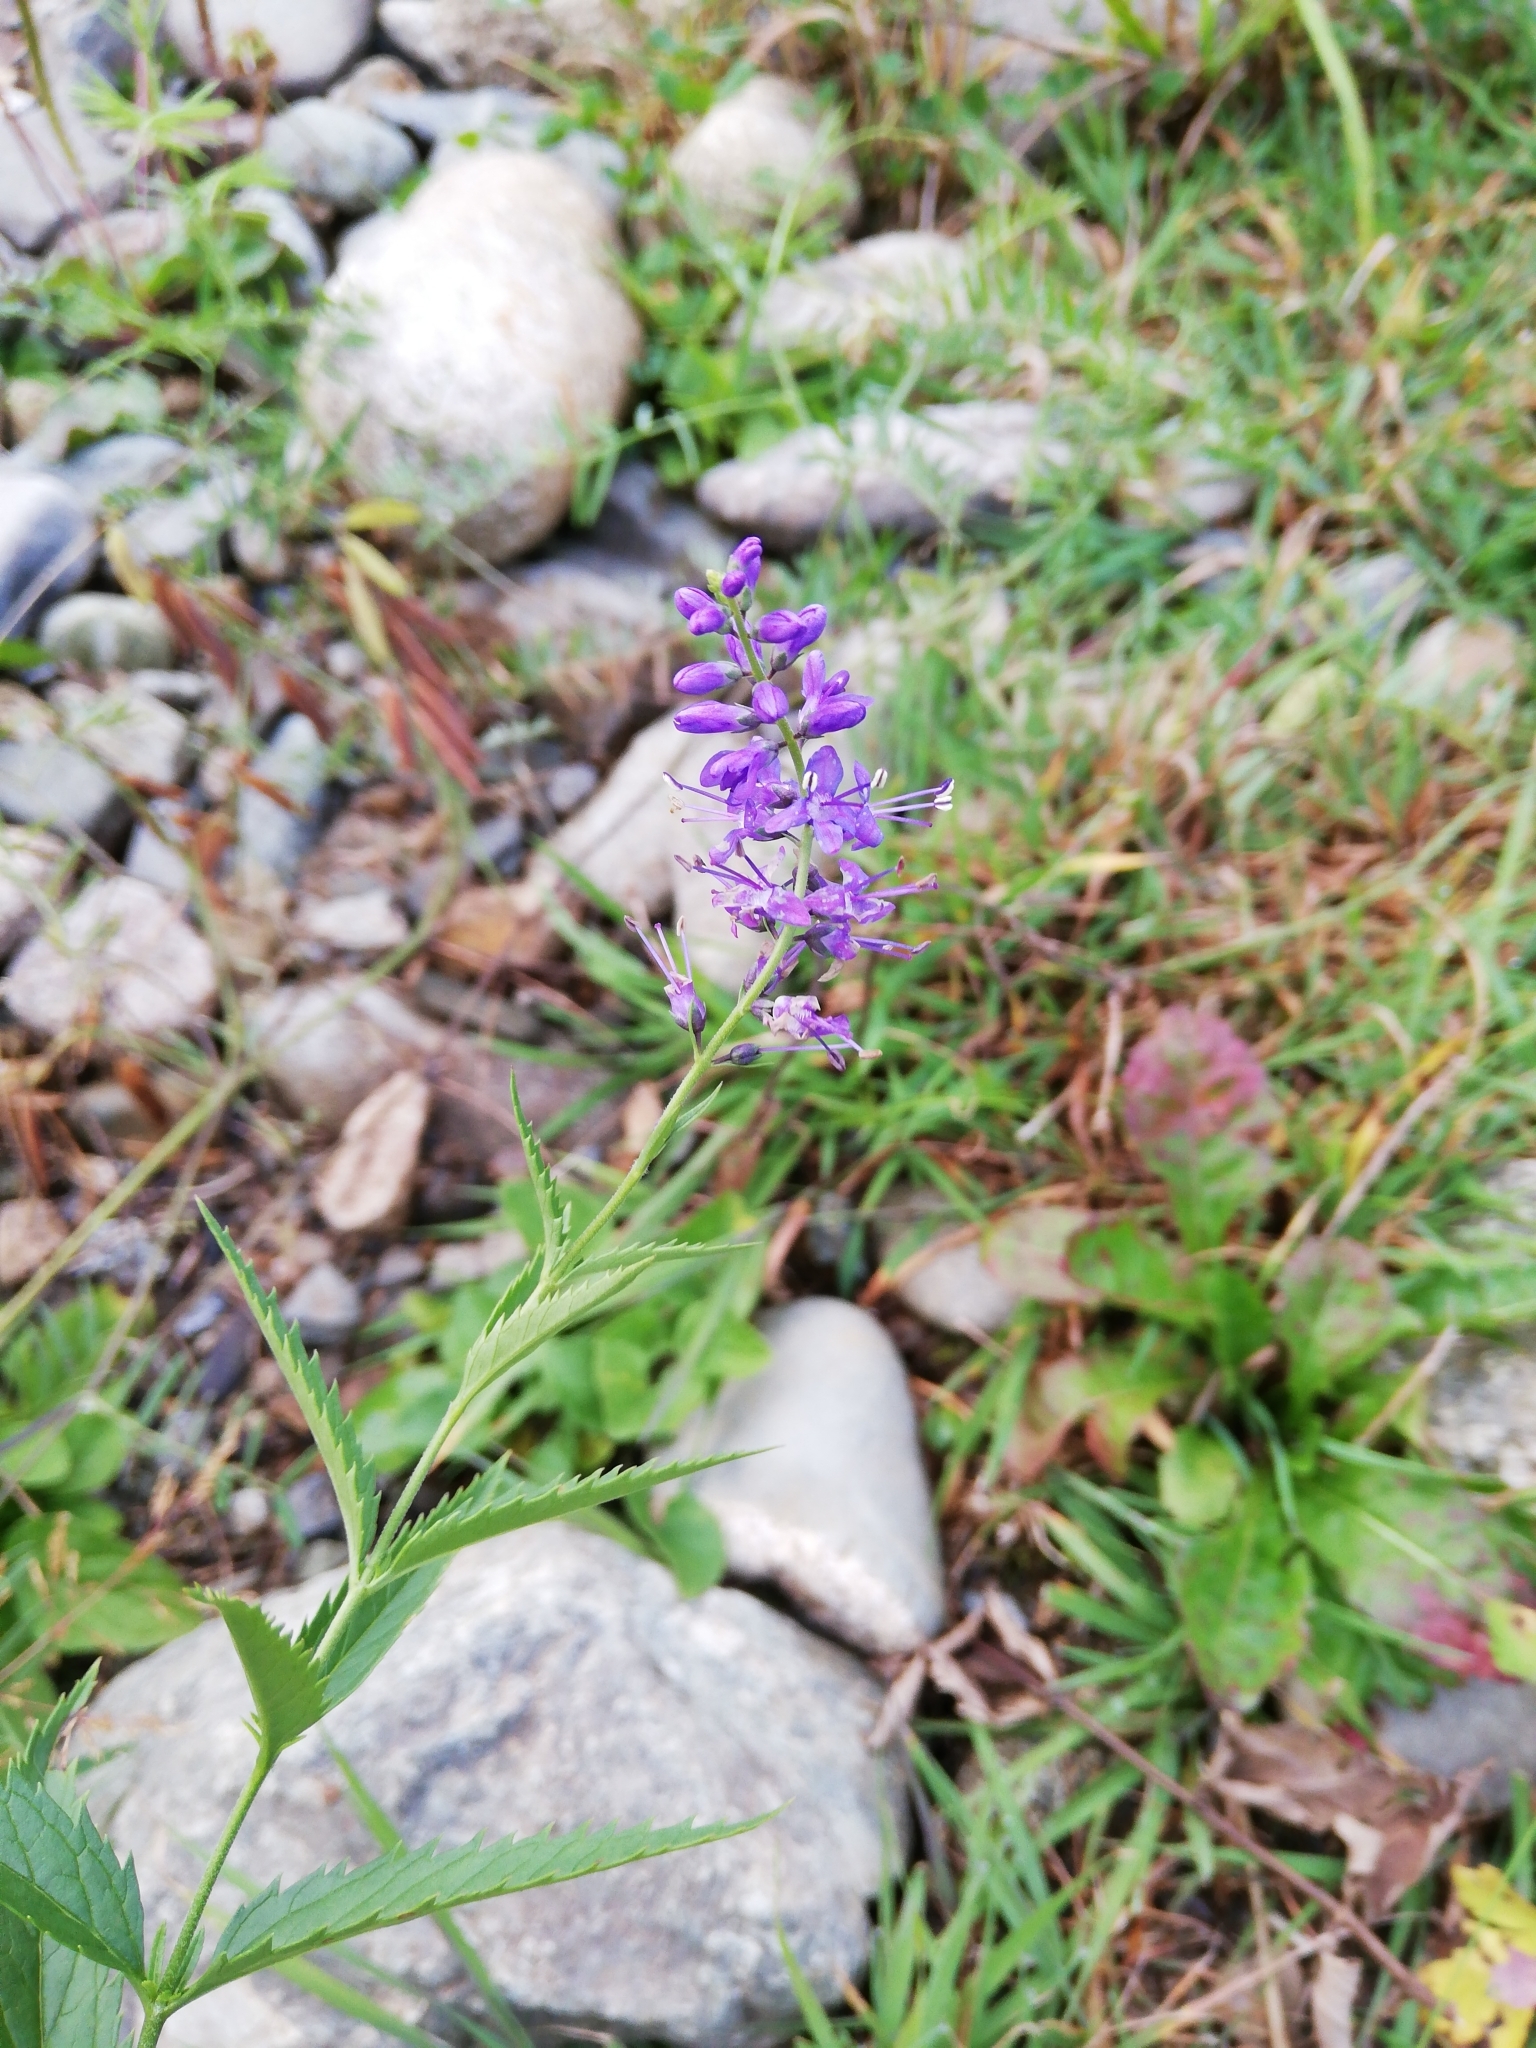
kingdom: Plantae
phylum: Tracheophyta
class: Magnoliopsida
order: Lamiales
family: Plantaginaceae
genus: Veronica
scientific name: Veronica longifolia
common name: Garden speedwell
